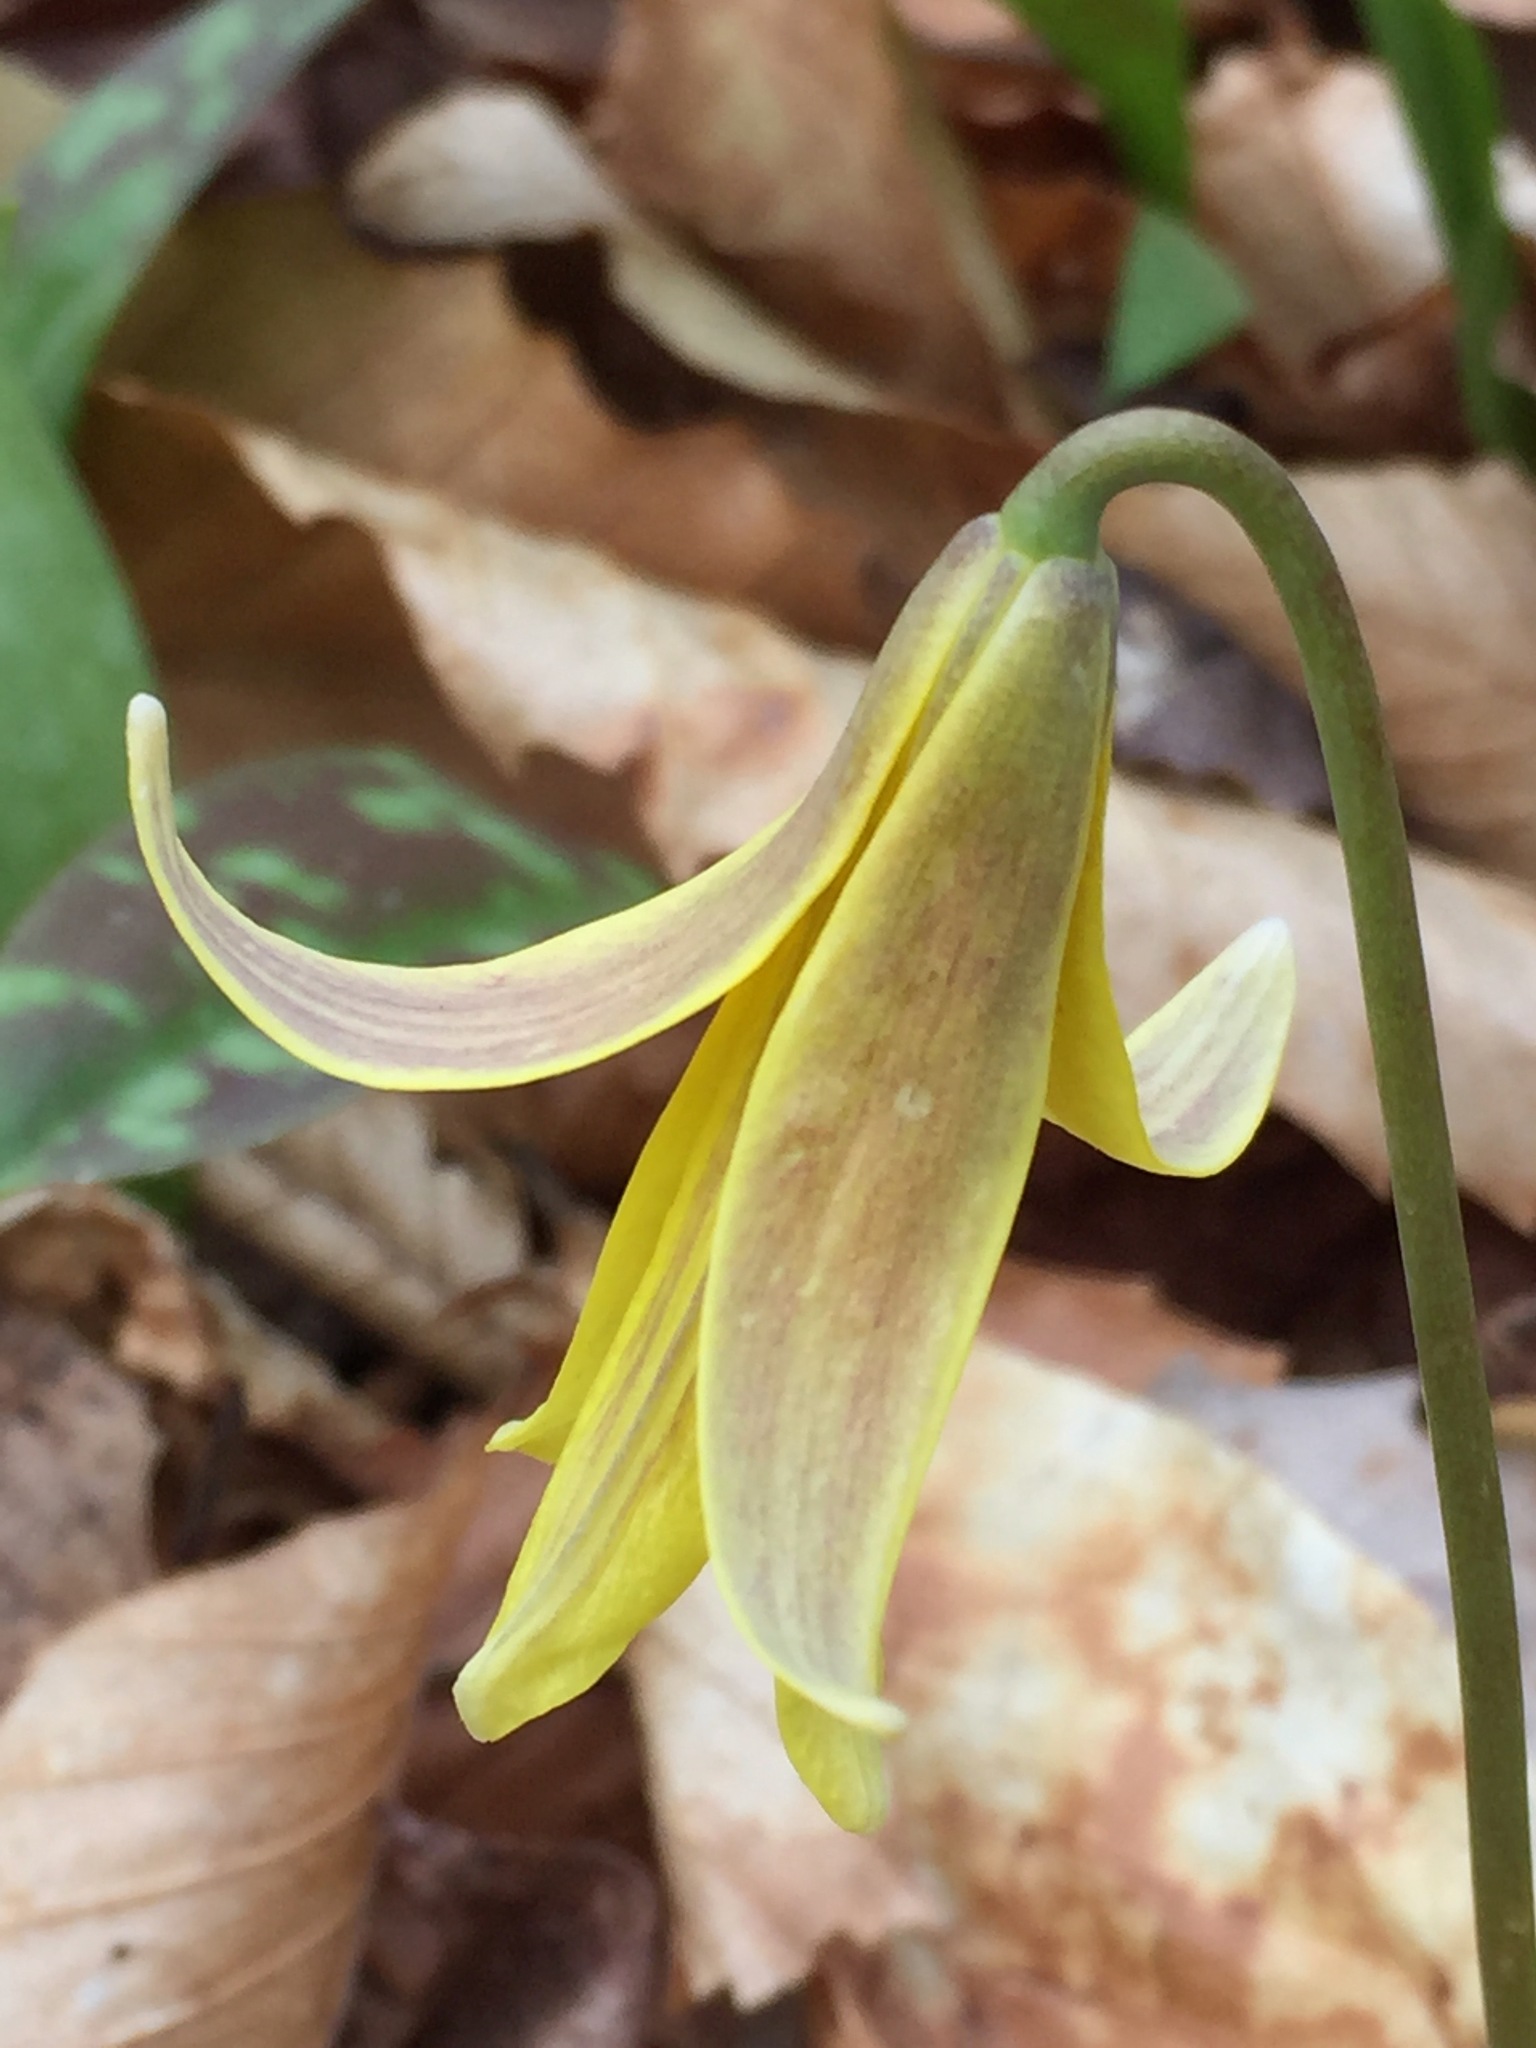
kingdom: Plantae
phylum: Tracheophyta
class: Liliopsida
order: Liliales
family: Liliaceae
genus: Erythronium
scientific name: Erythronium americanum
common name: Yellow adder's-tongue
